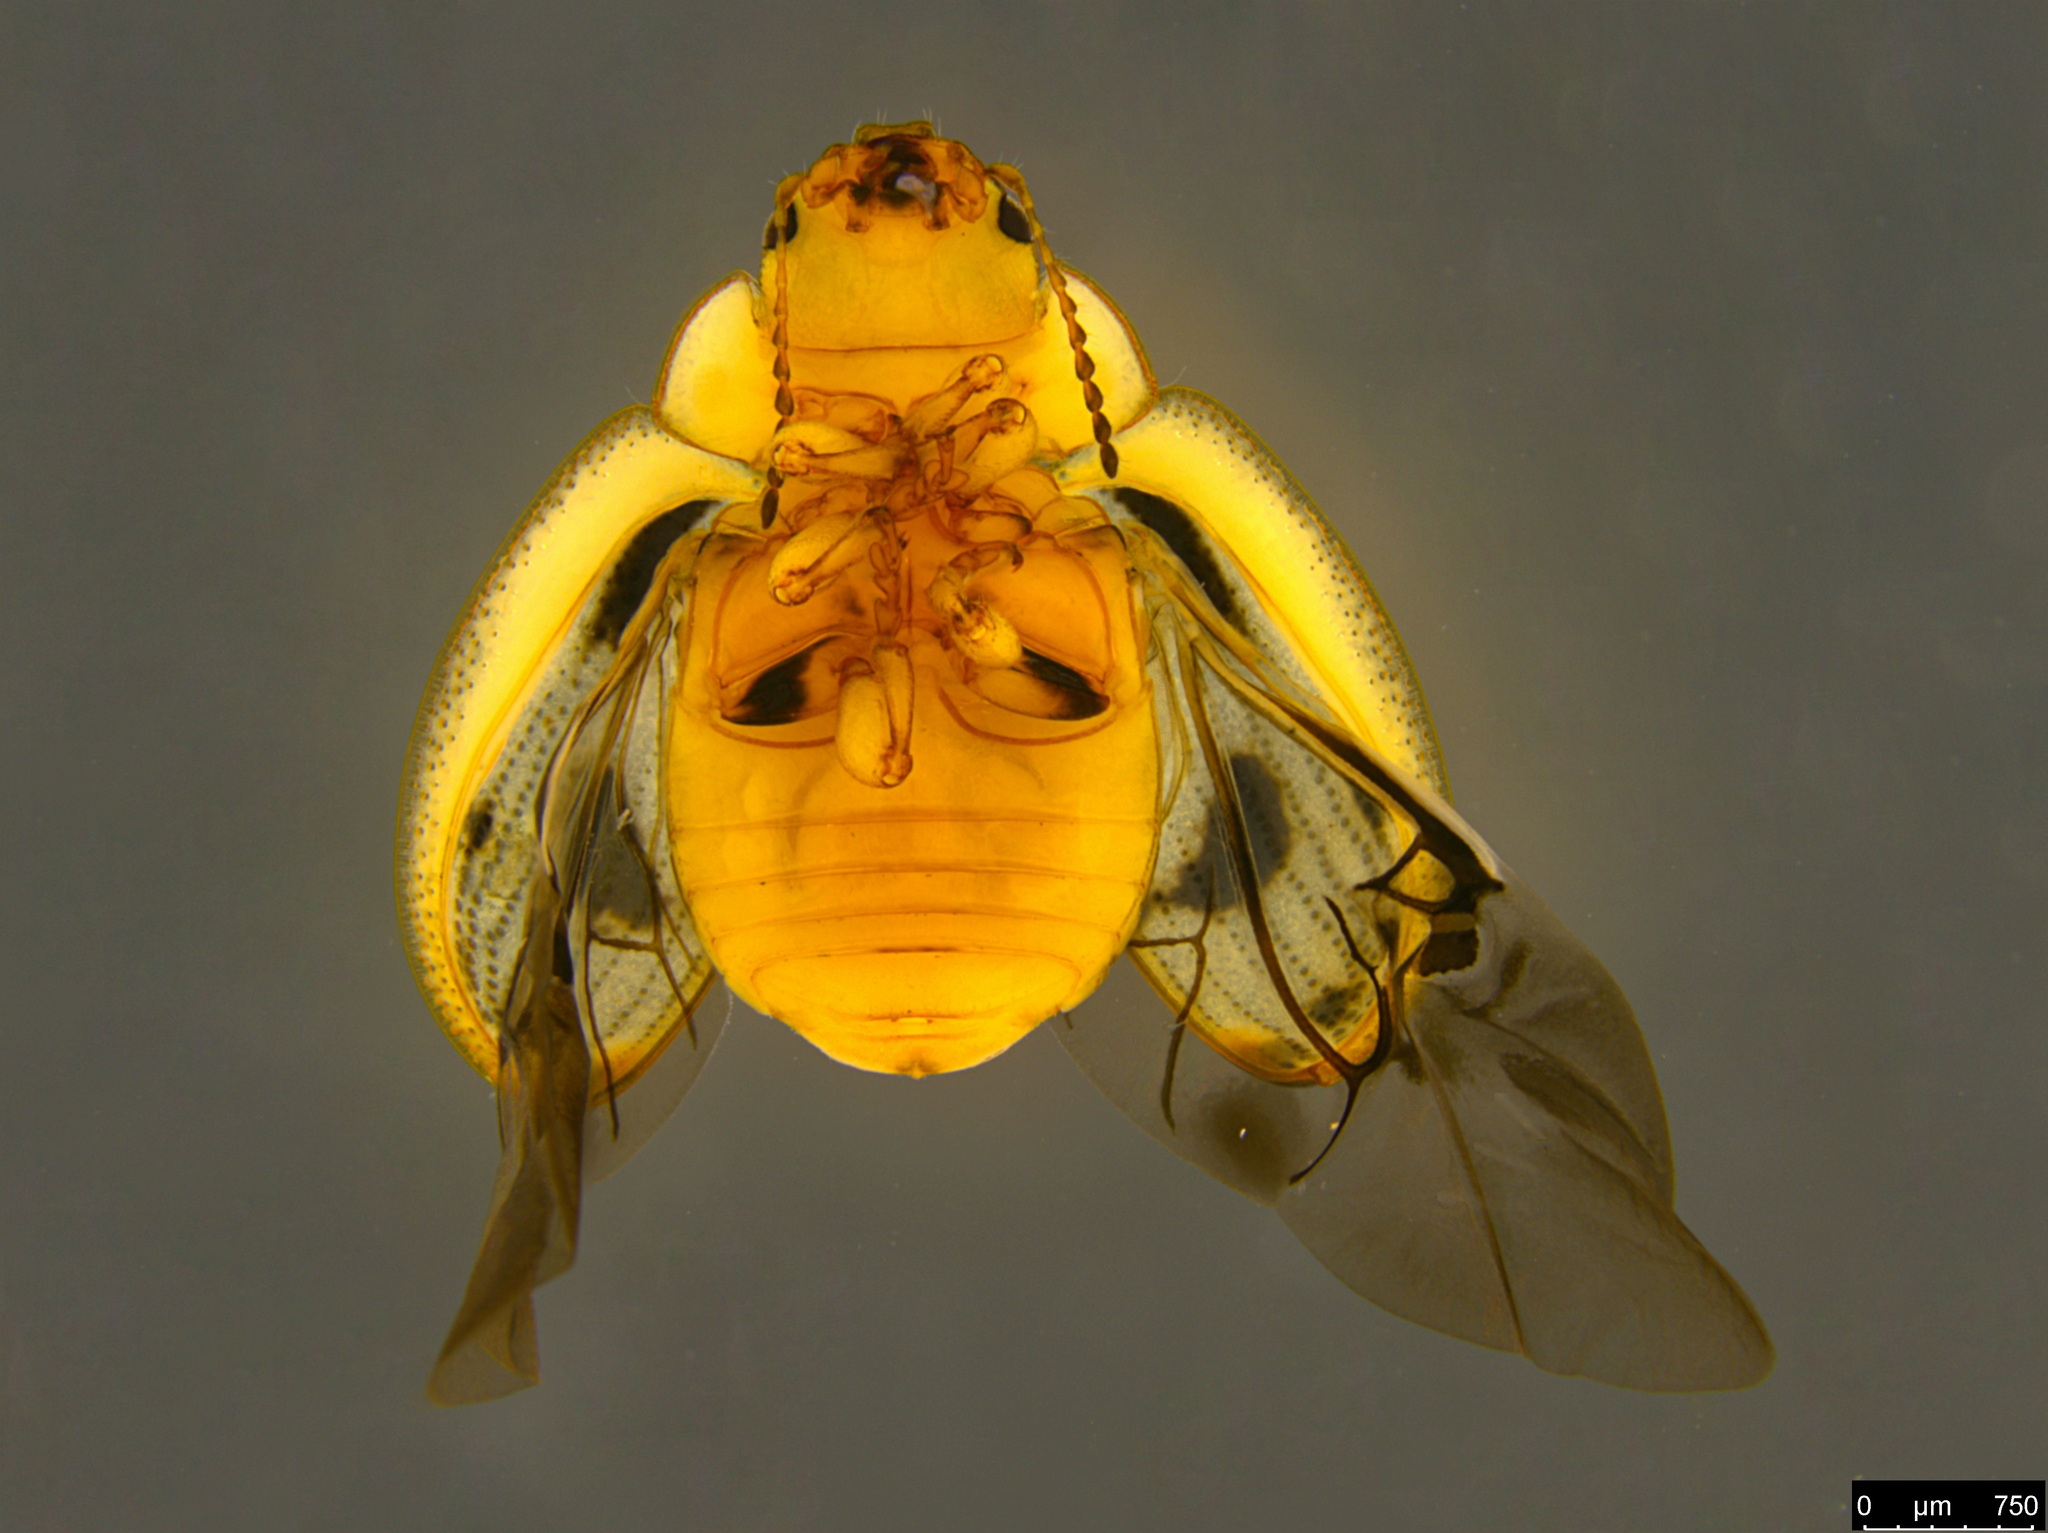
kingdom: Animalia
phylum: Arthropoda
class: Insecta
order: Coleoptera
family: Chrysomelidae
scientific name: Chrysomelidae
